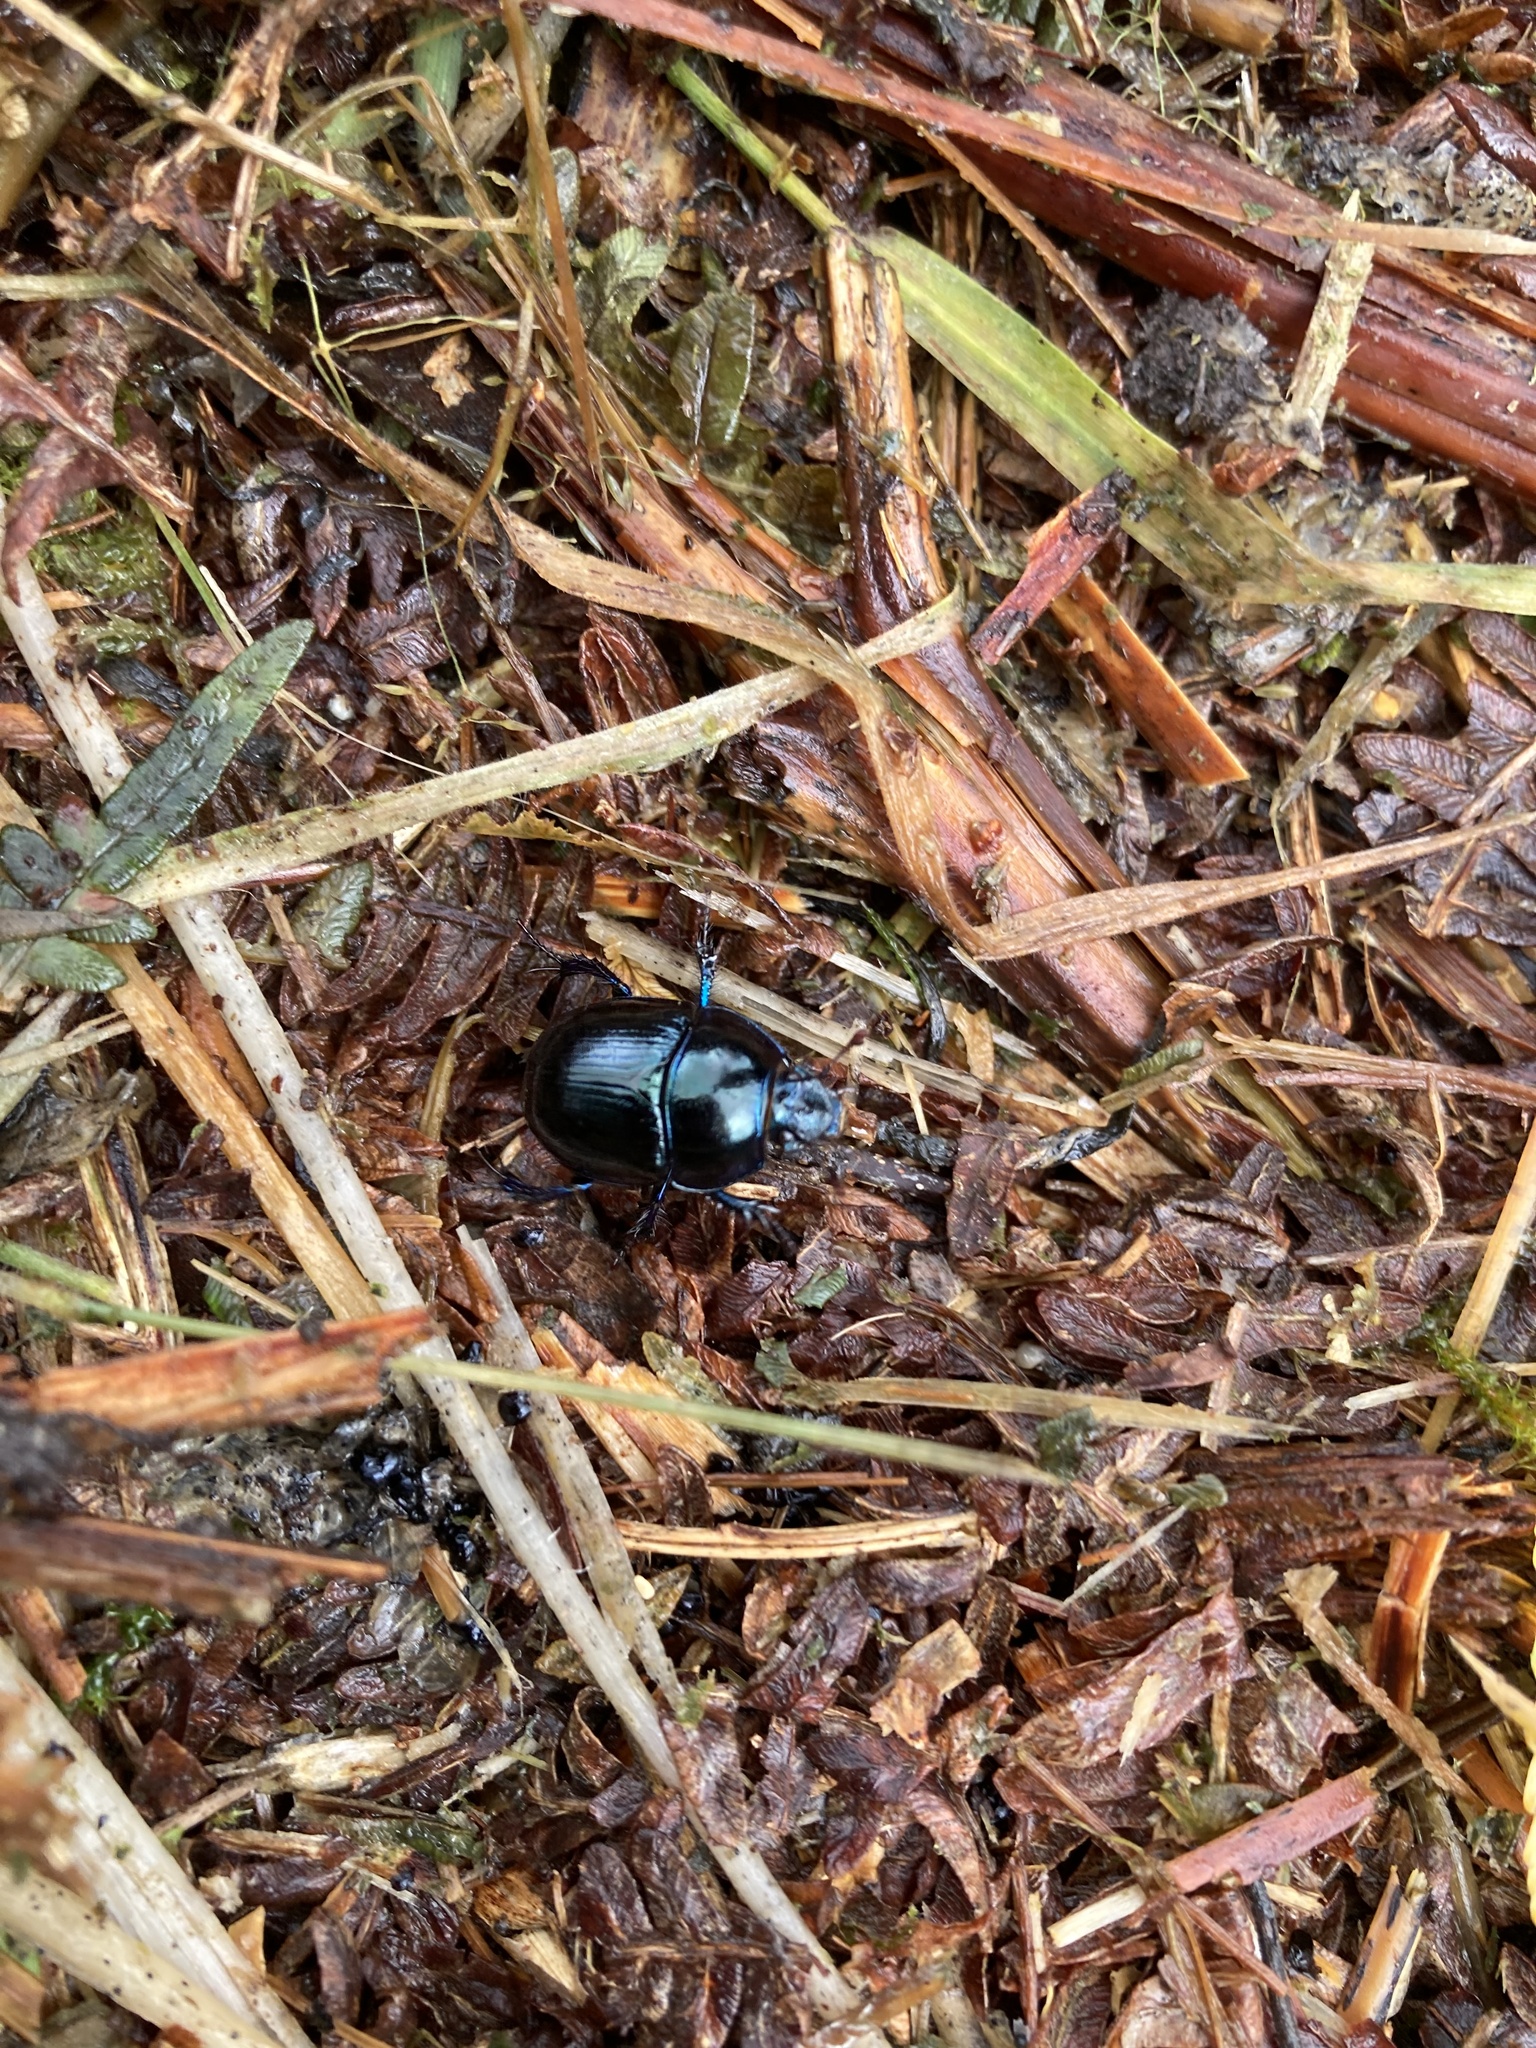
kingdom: Animalia
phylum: Arthropoda
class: Insecta
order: Coleoptera
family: Geotrupidae
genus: Anoplotrupes
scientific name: Anoplotrupes stercorosus
